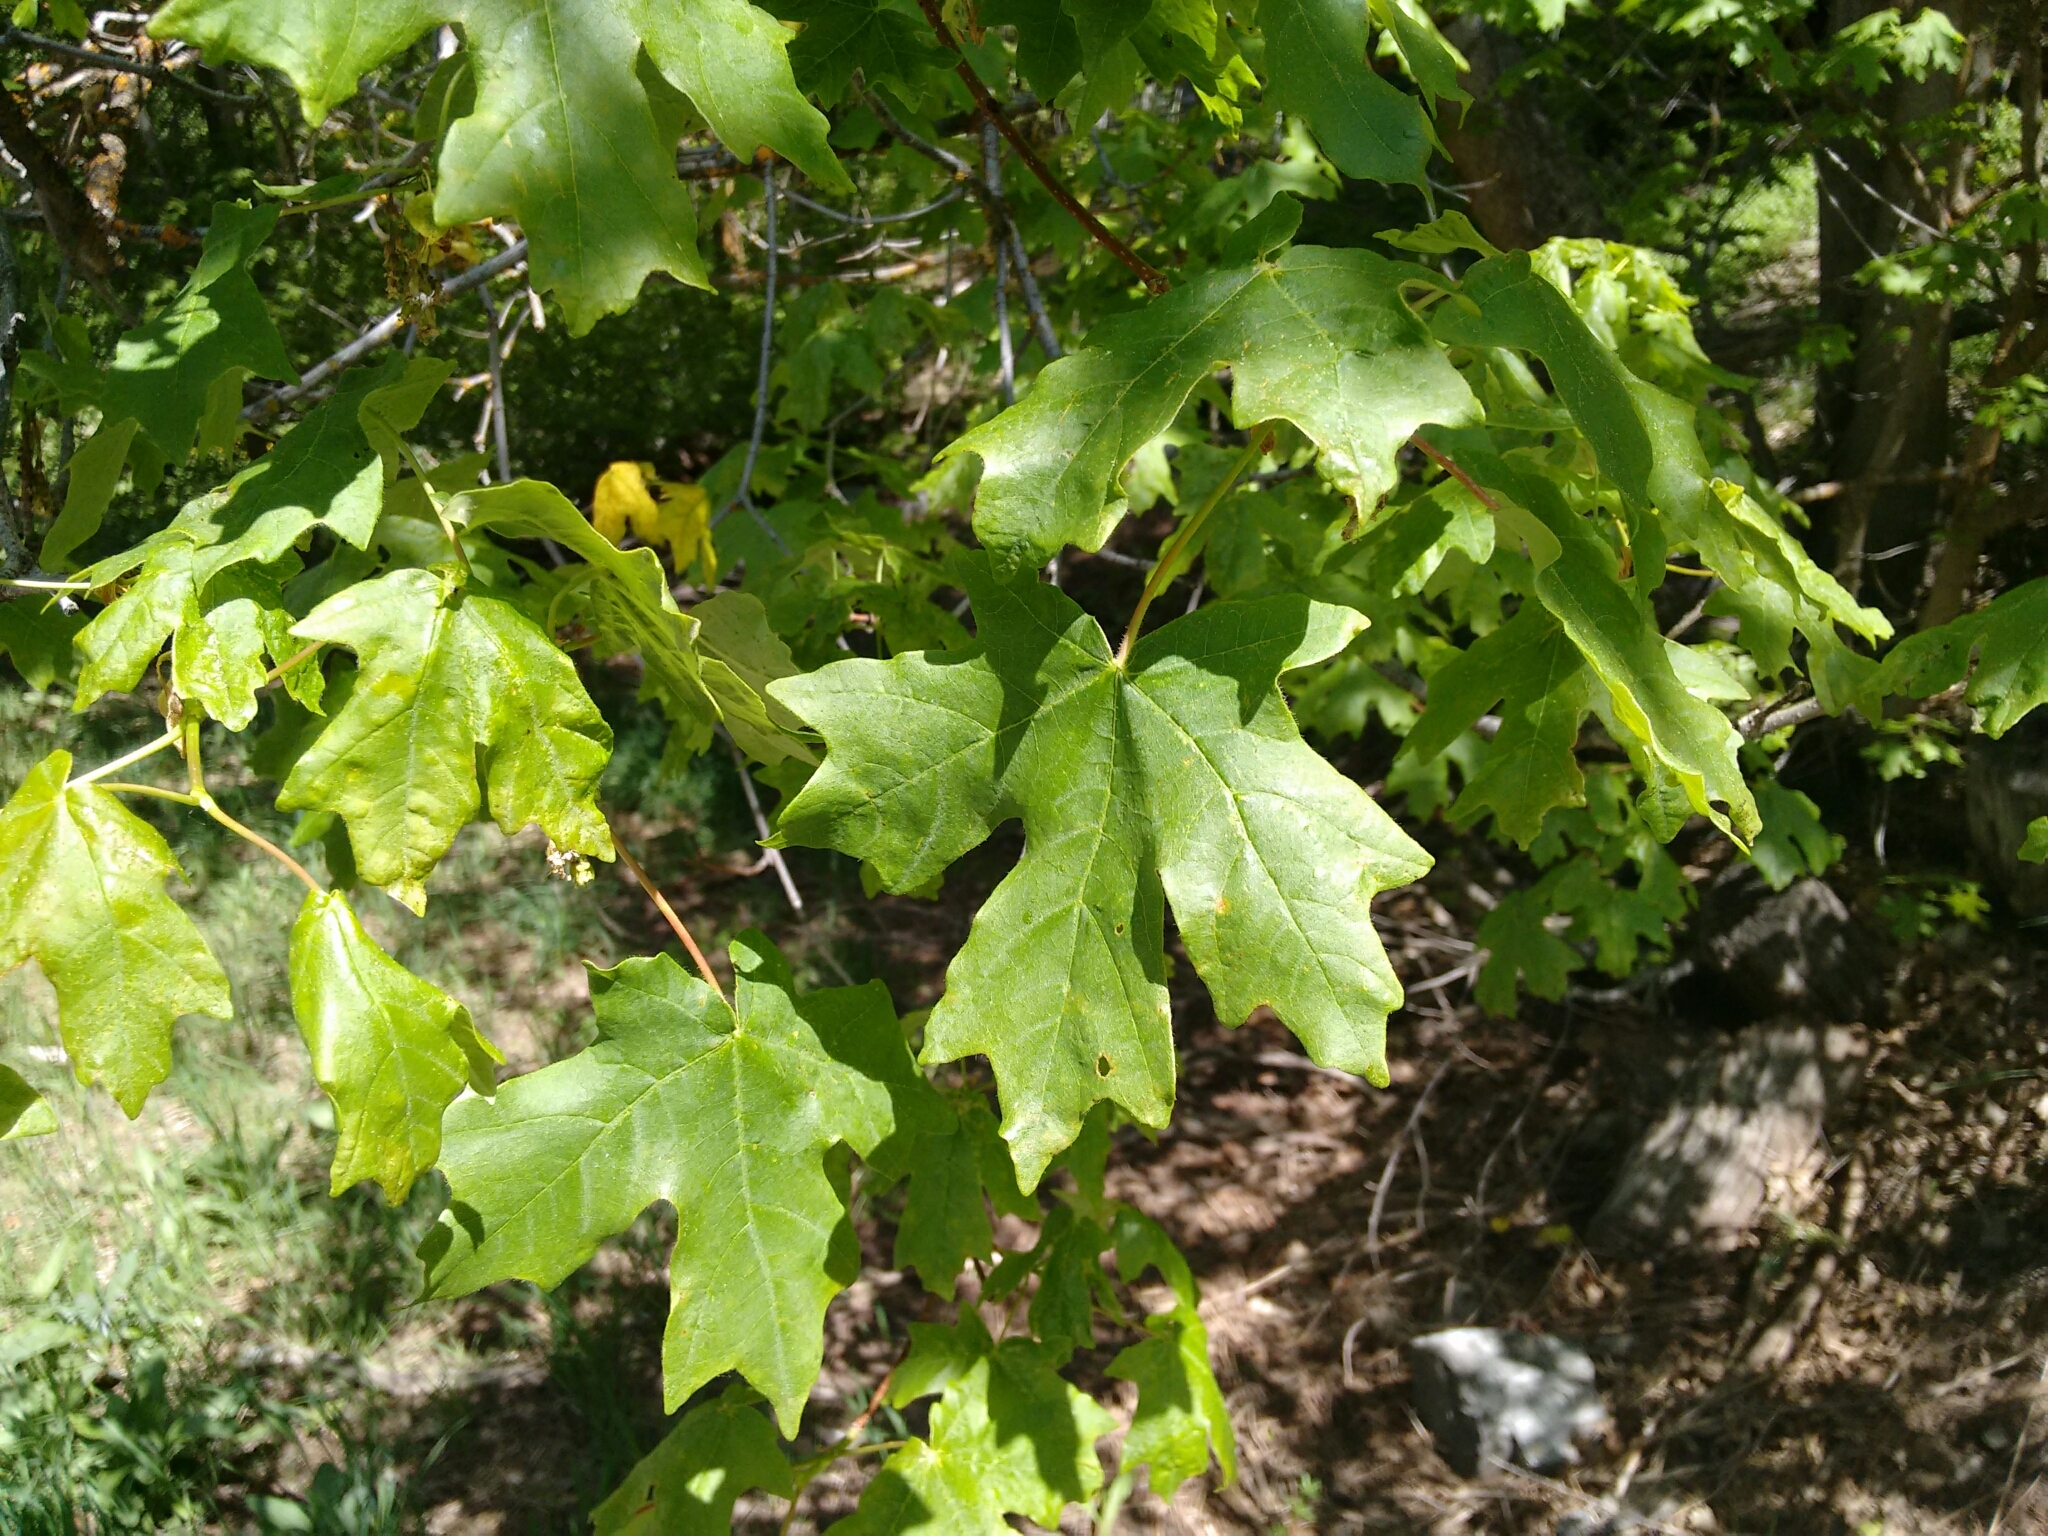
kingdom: Plantae
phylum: Tracheophyta
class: Magnoliopsida
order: Sapindales
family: Sapindaceae
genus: Acer
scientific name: Acer grandidentatum
